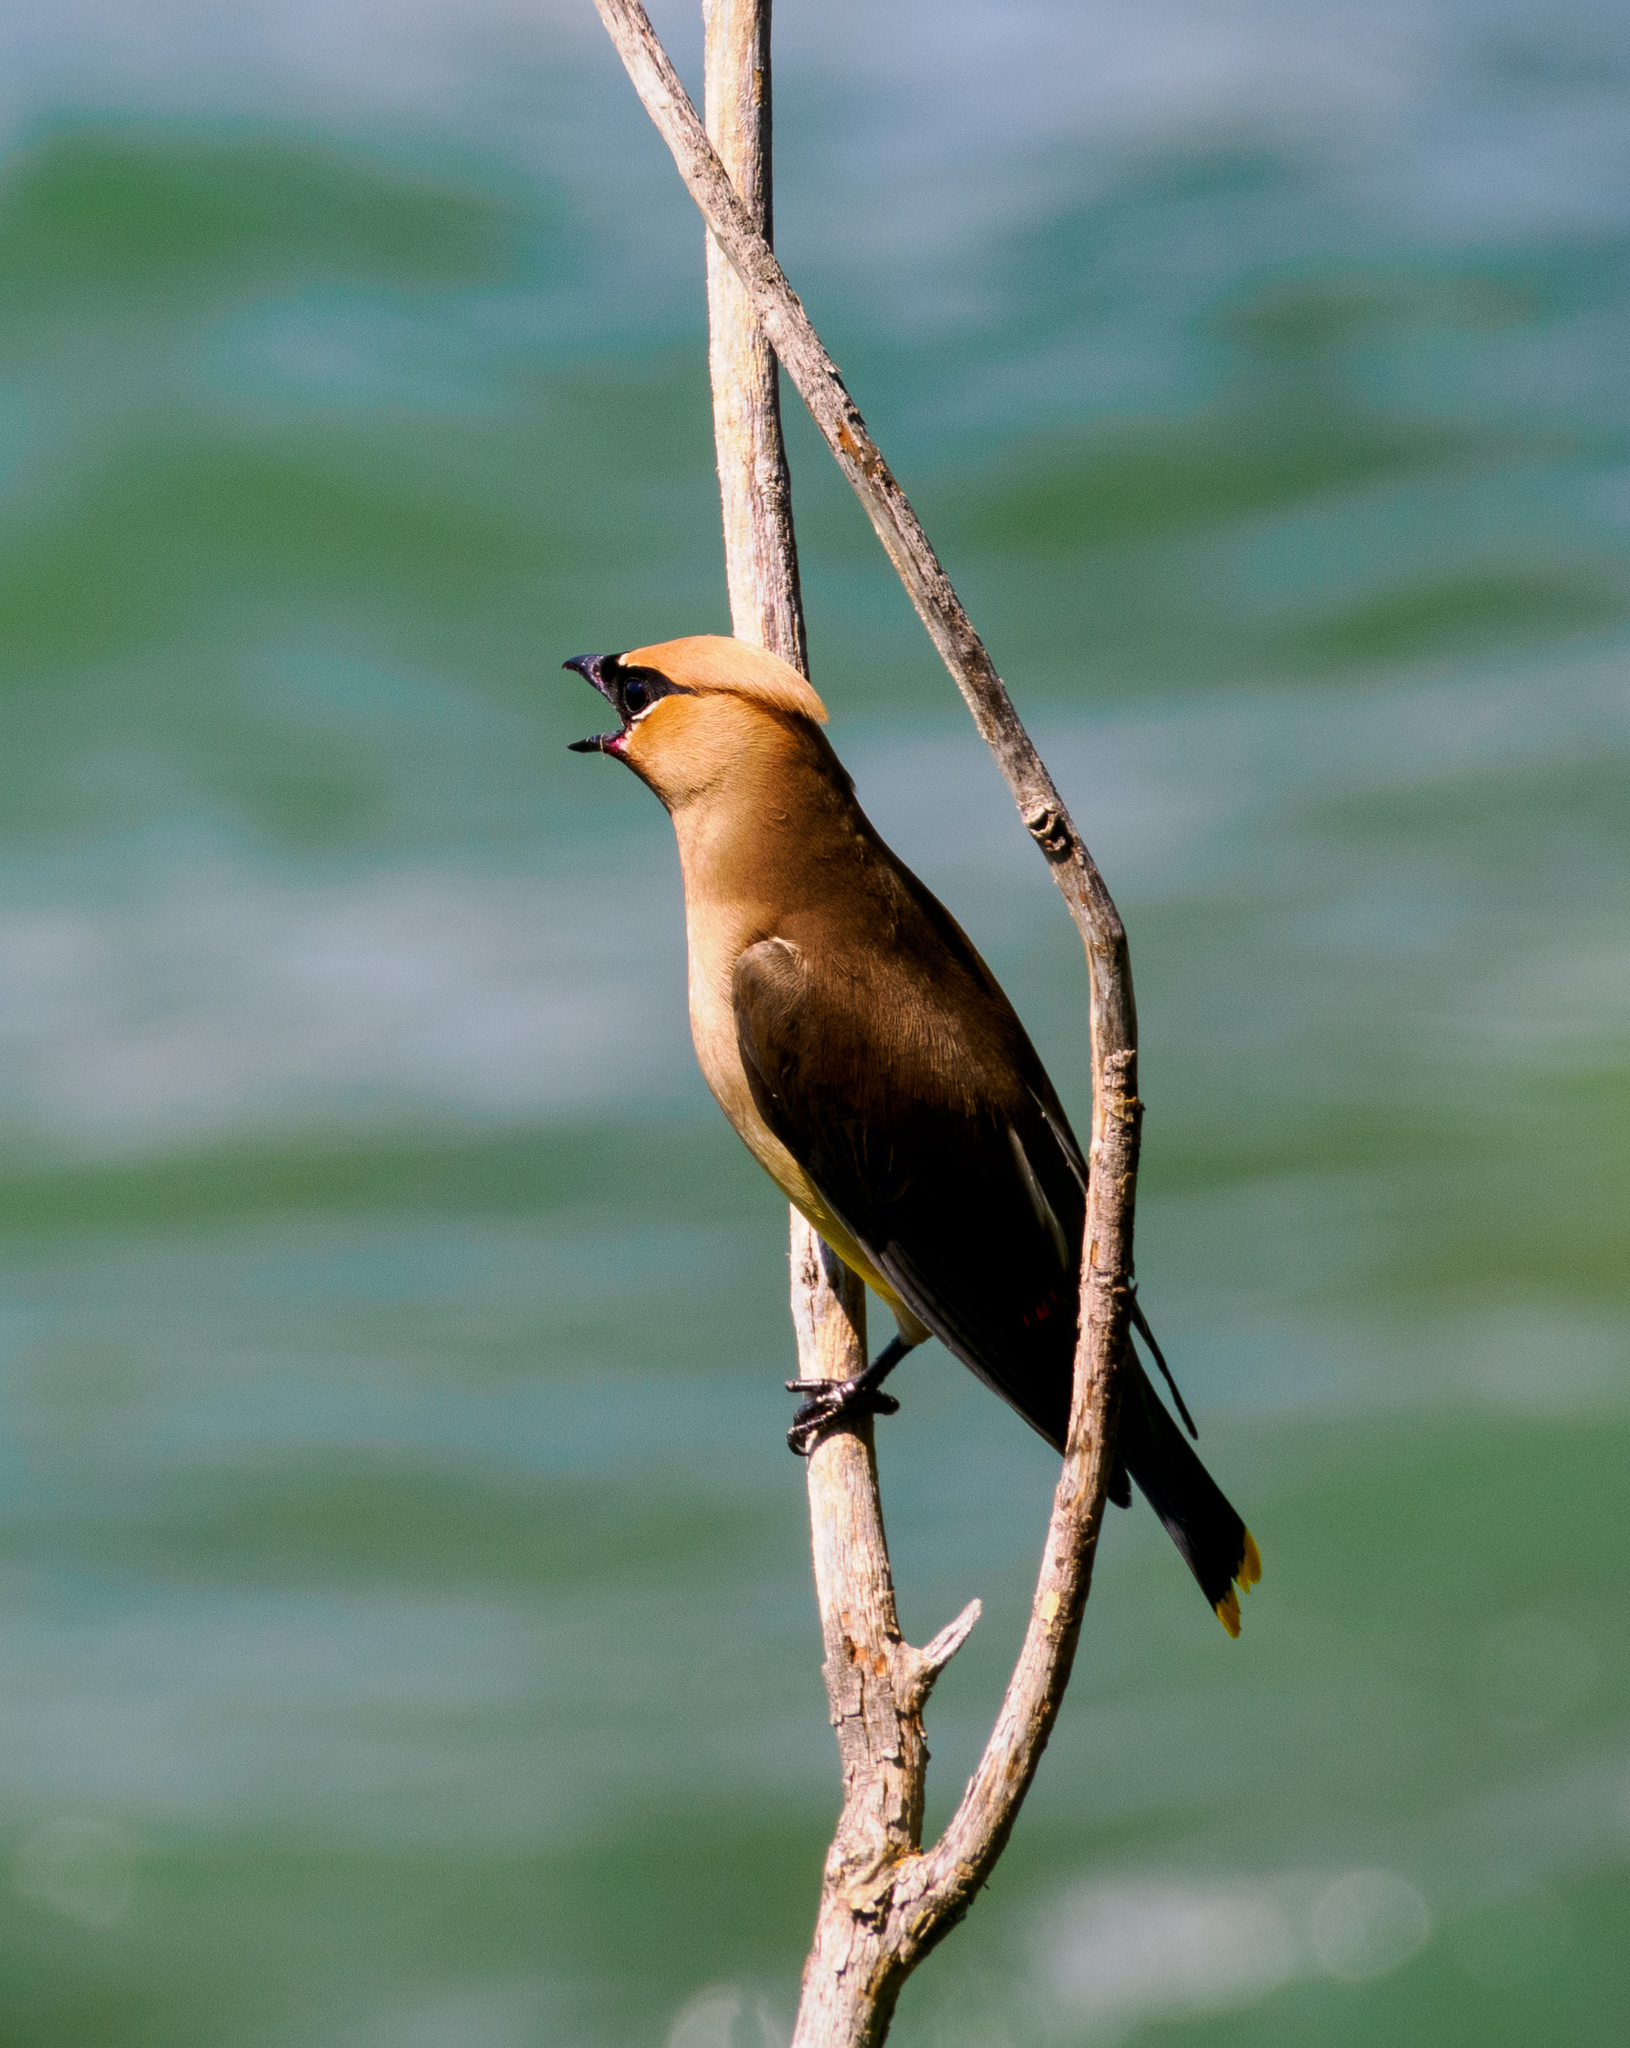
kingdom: Animalia
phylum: Chordata
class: Aves
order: Passeriformes
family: Bombycillidae
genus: Bombycilla
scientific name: Bombycilla cedrorum
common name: Cedar waxwing
